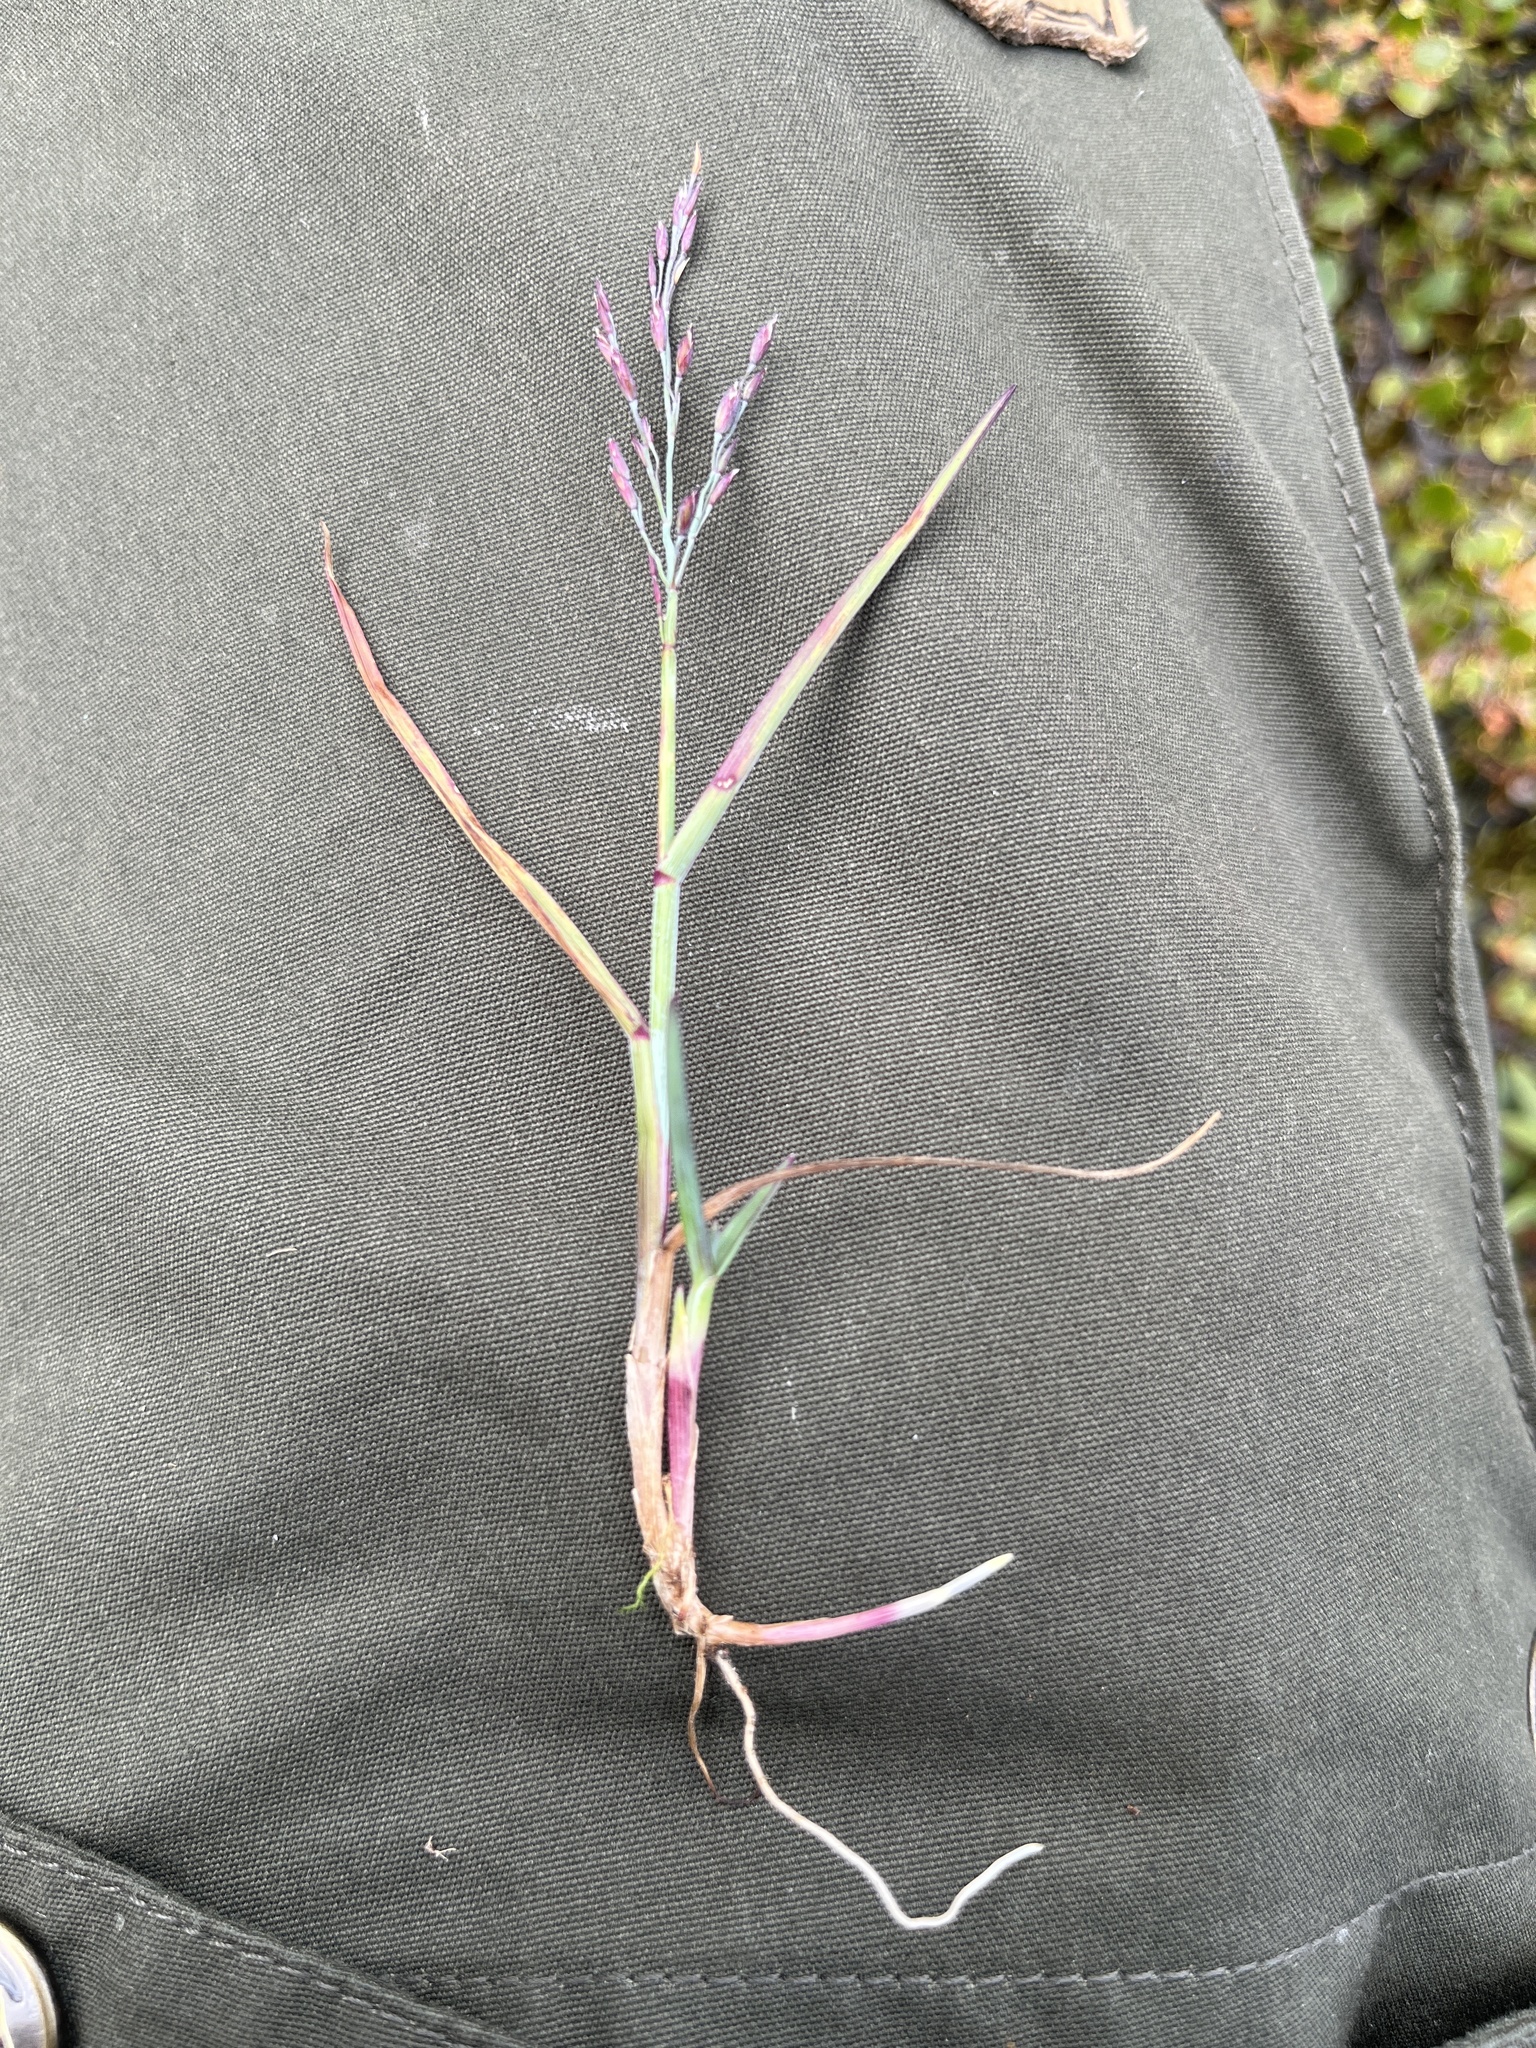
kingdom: Plantae
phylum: Tracheophyta
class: Liliopsida
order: Poales
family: Poaceae
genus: Poa
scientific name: Poa pratensis
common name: Kentucky bluegrass
